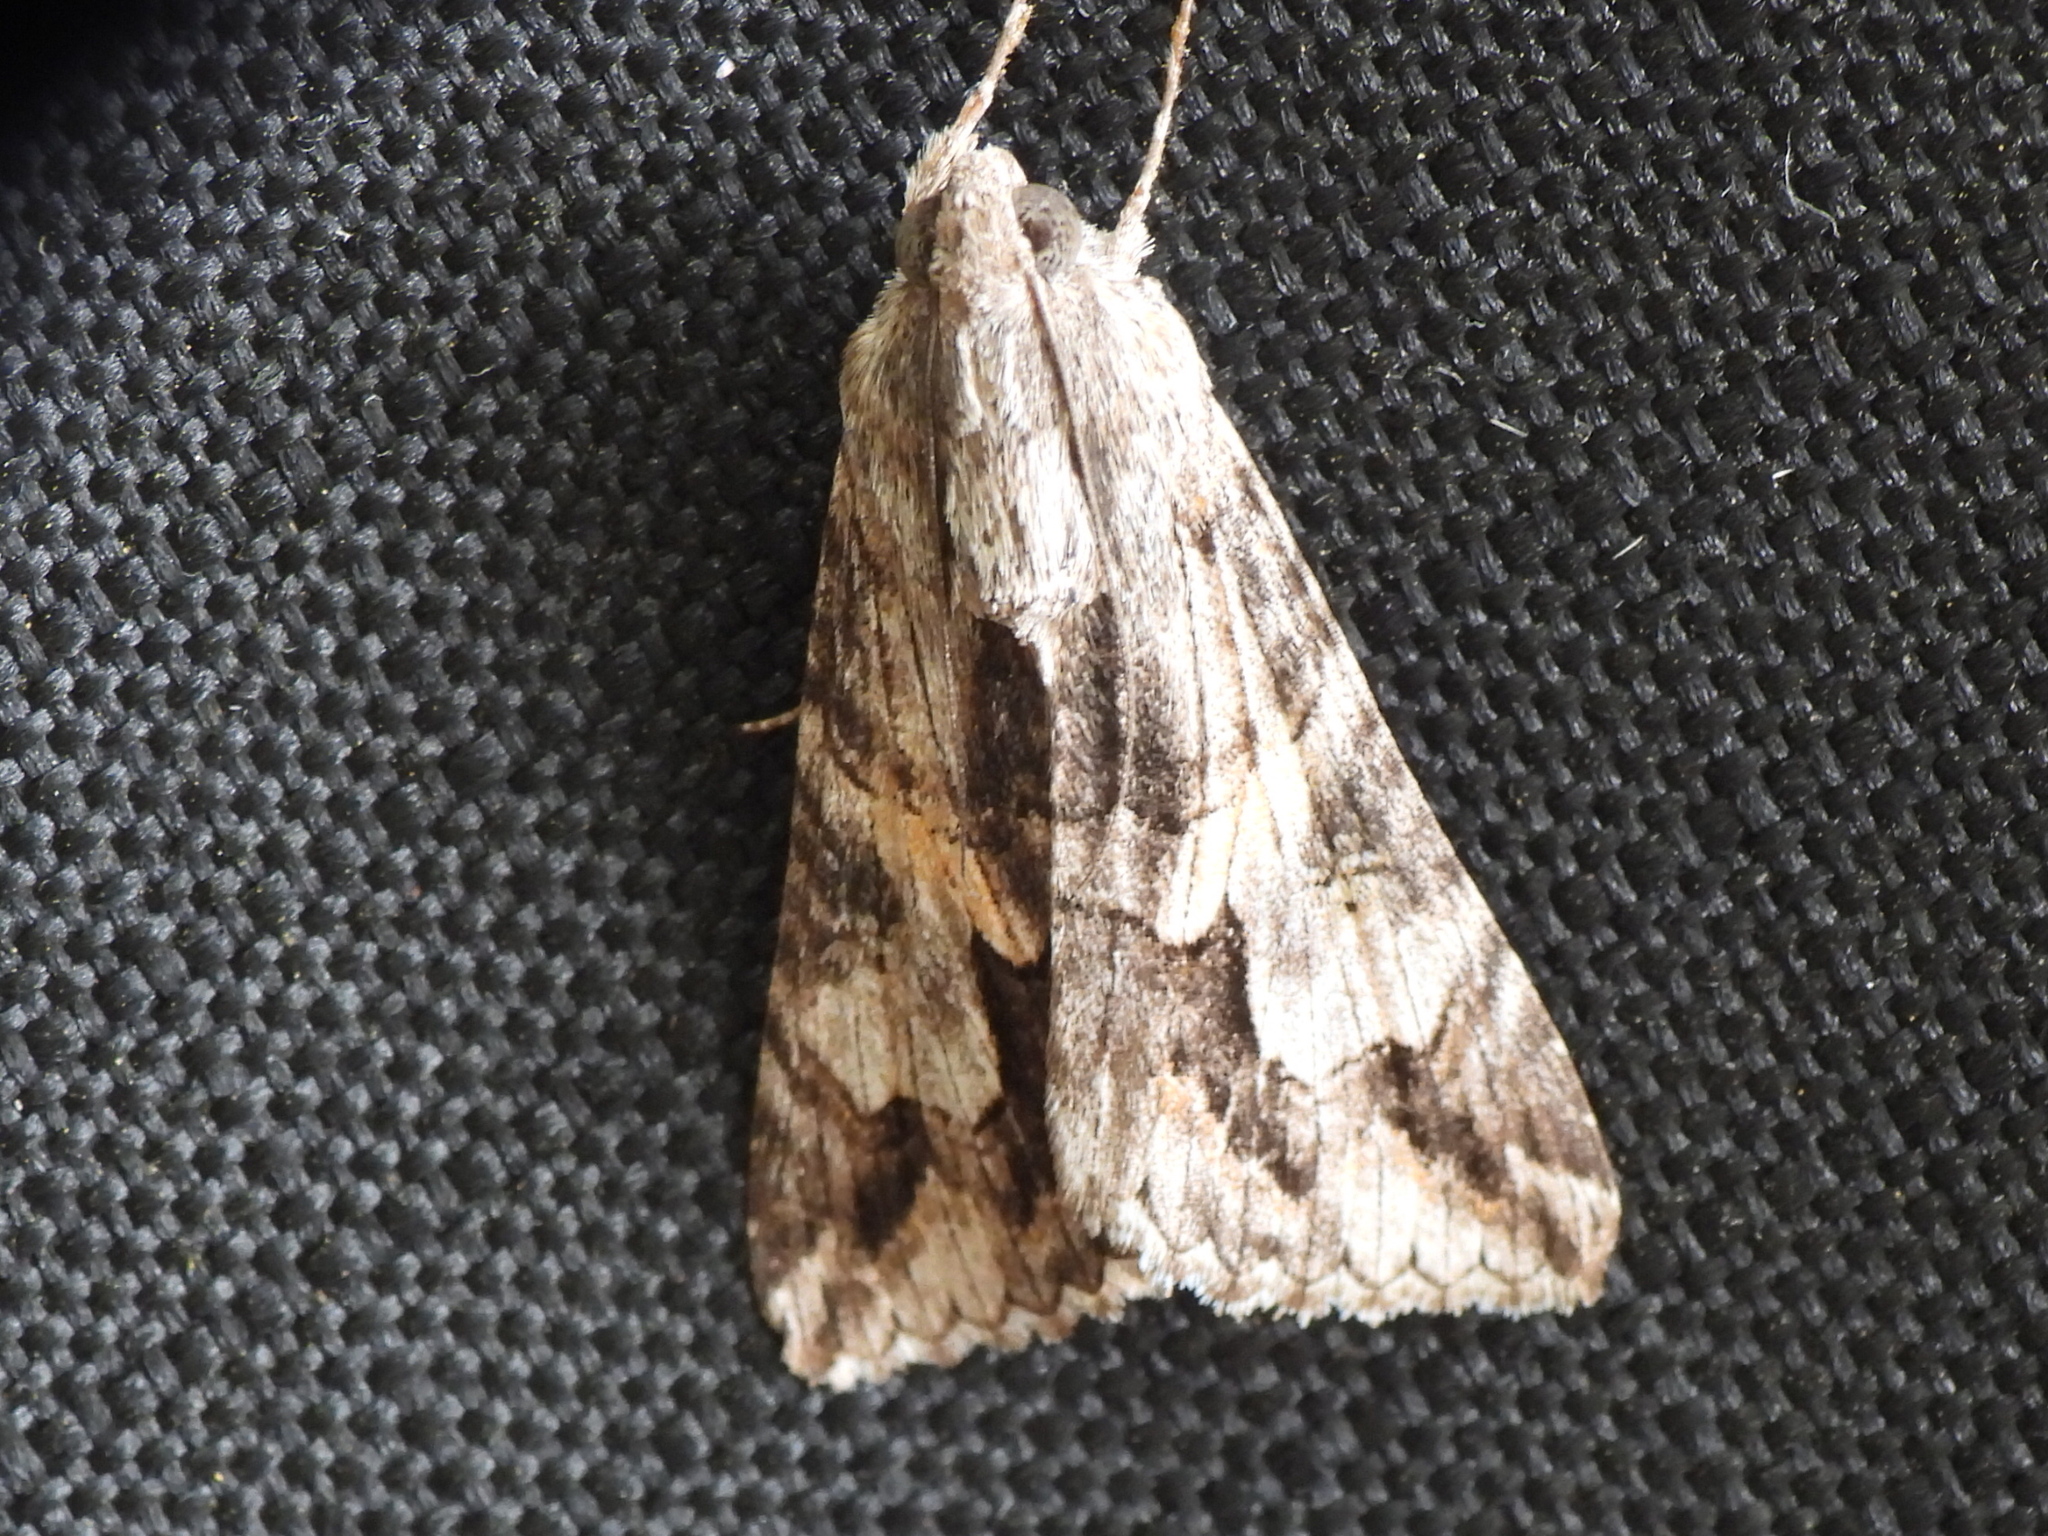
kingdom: Animalia
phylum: Arthropoda
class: Insecta
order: Lepidoptera
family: Erebidae
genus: Melipotis
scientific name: Melipotis jucunda
